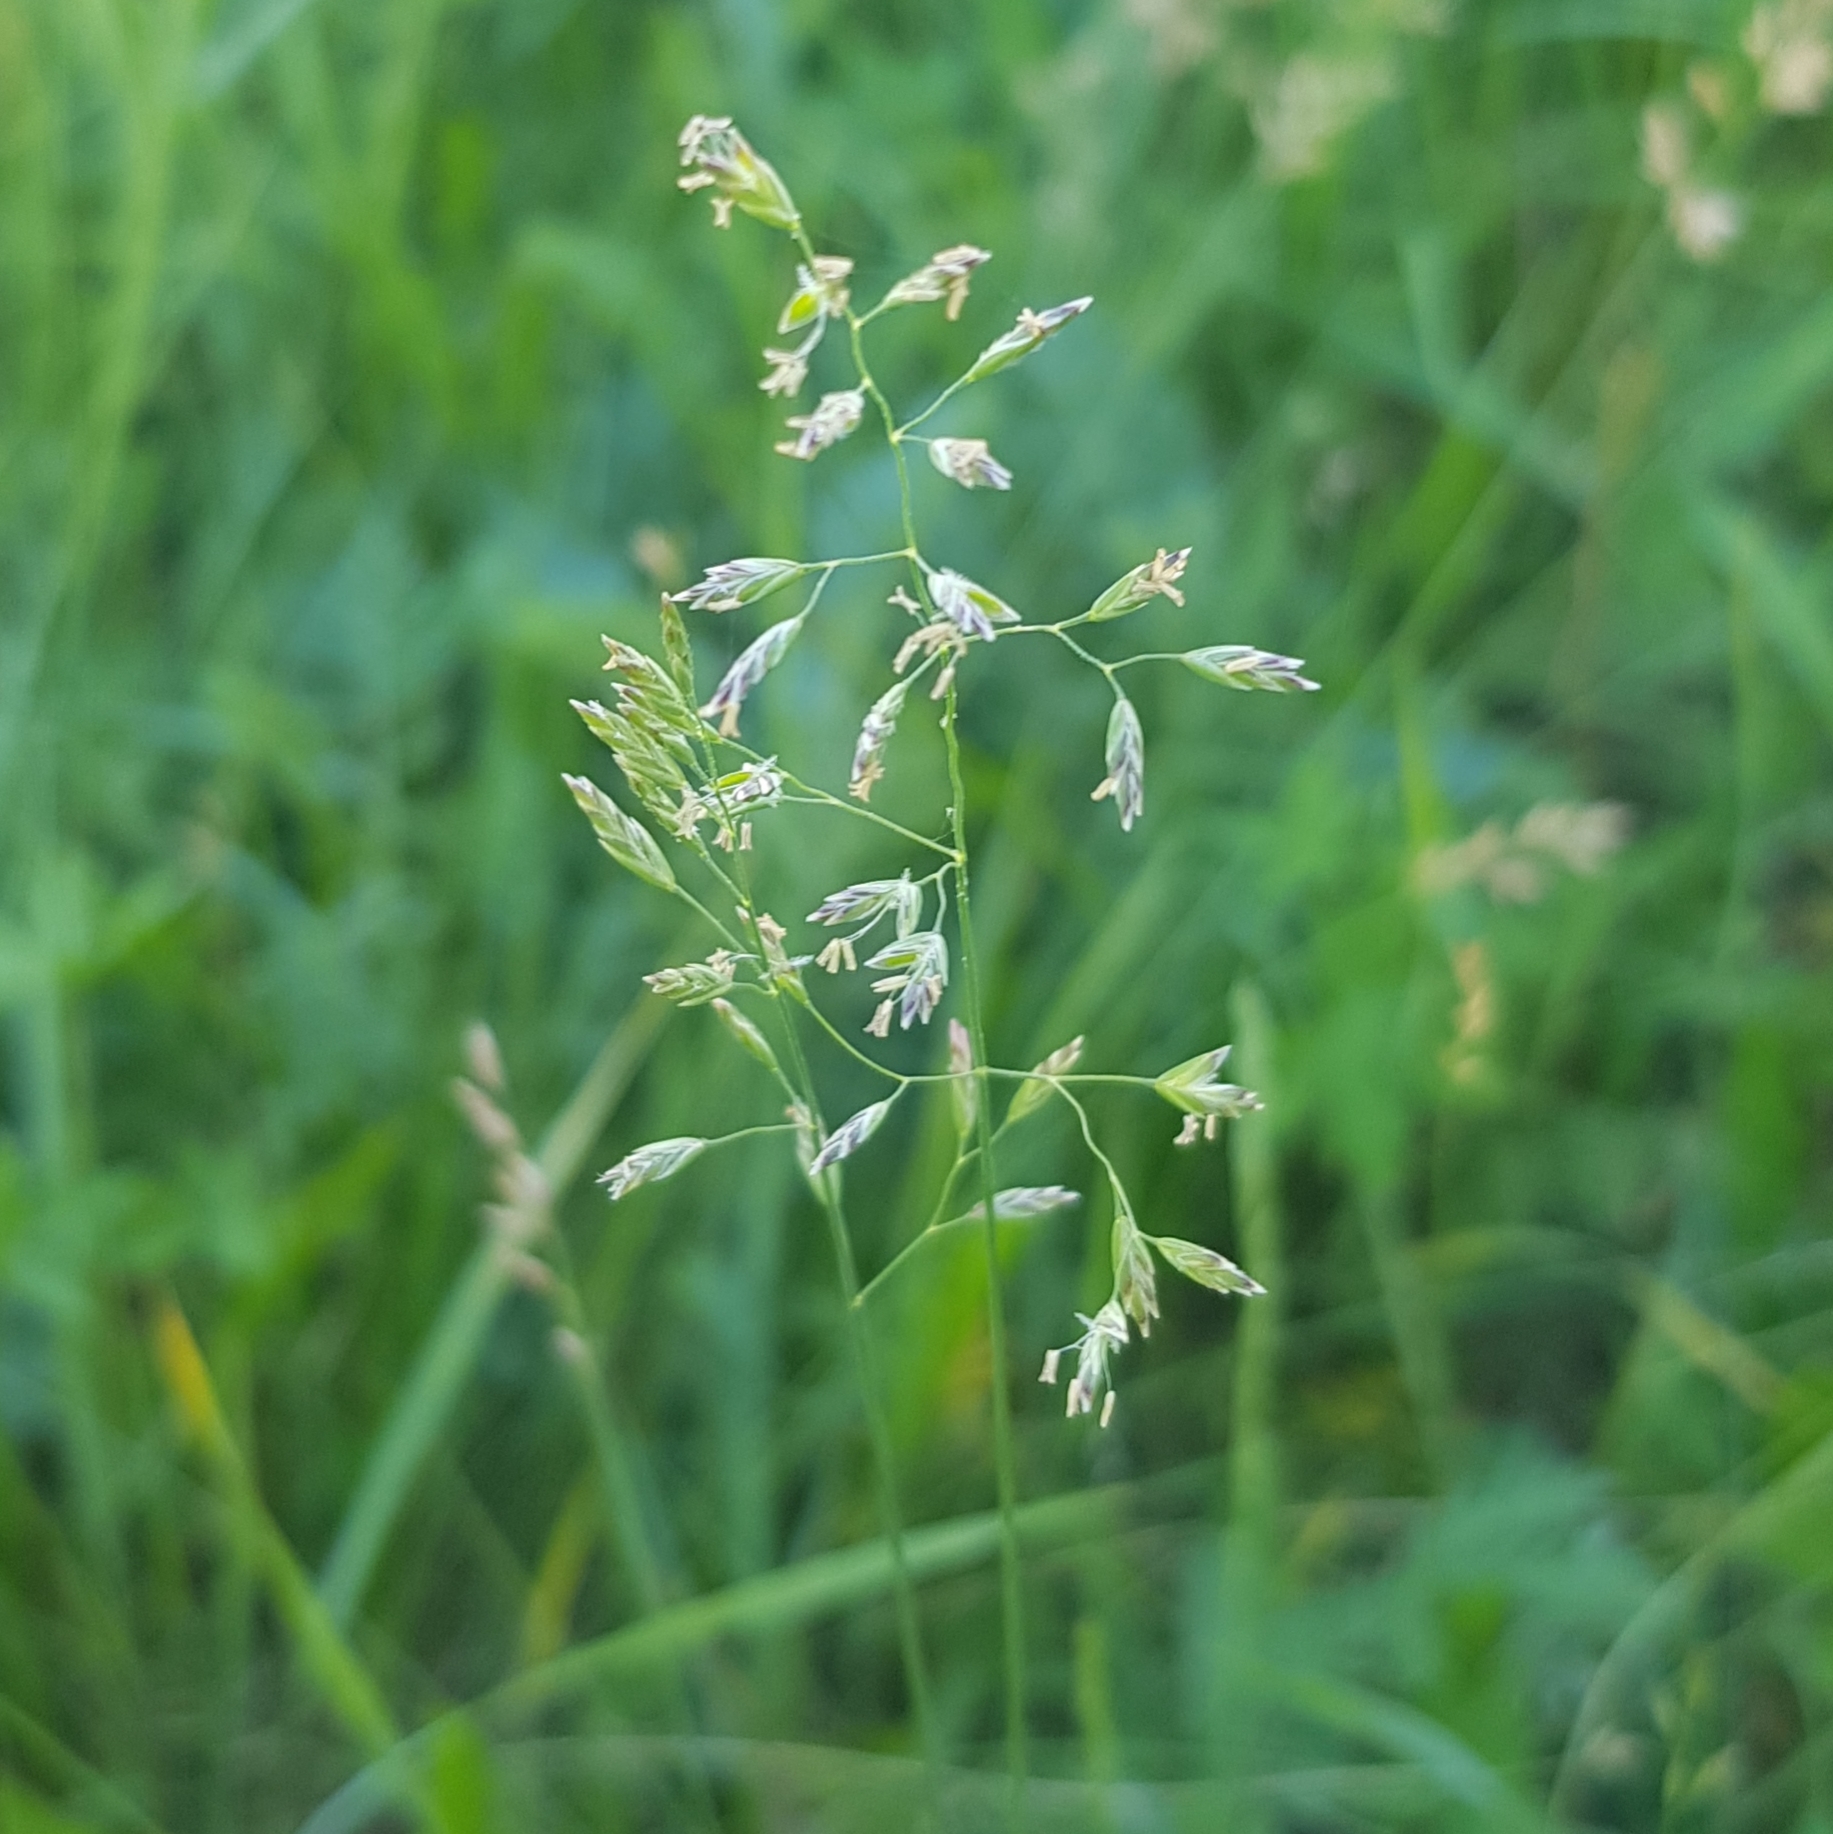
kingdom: Plantae
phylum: Tracheophyta
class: Liliopsida
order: Poales
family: Poaceae
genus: Poa
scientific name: Poa pratensis
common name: Kentucky bluegrass
